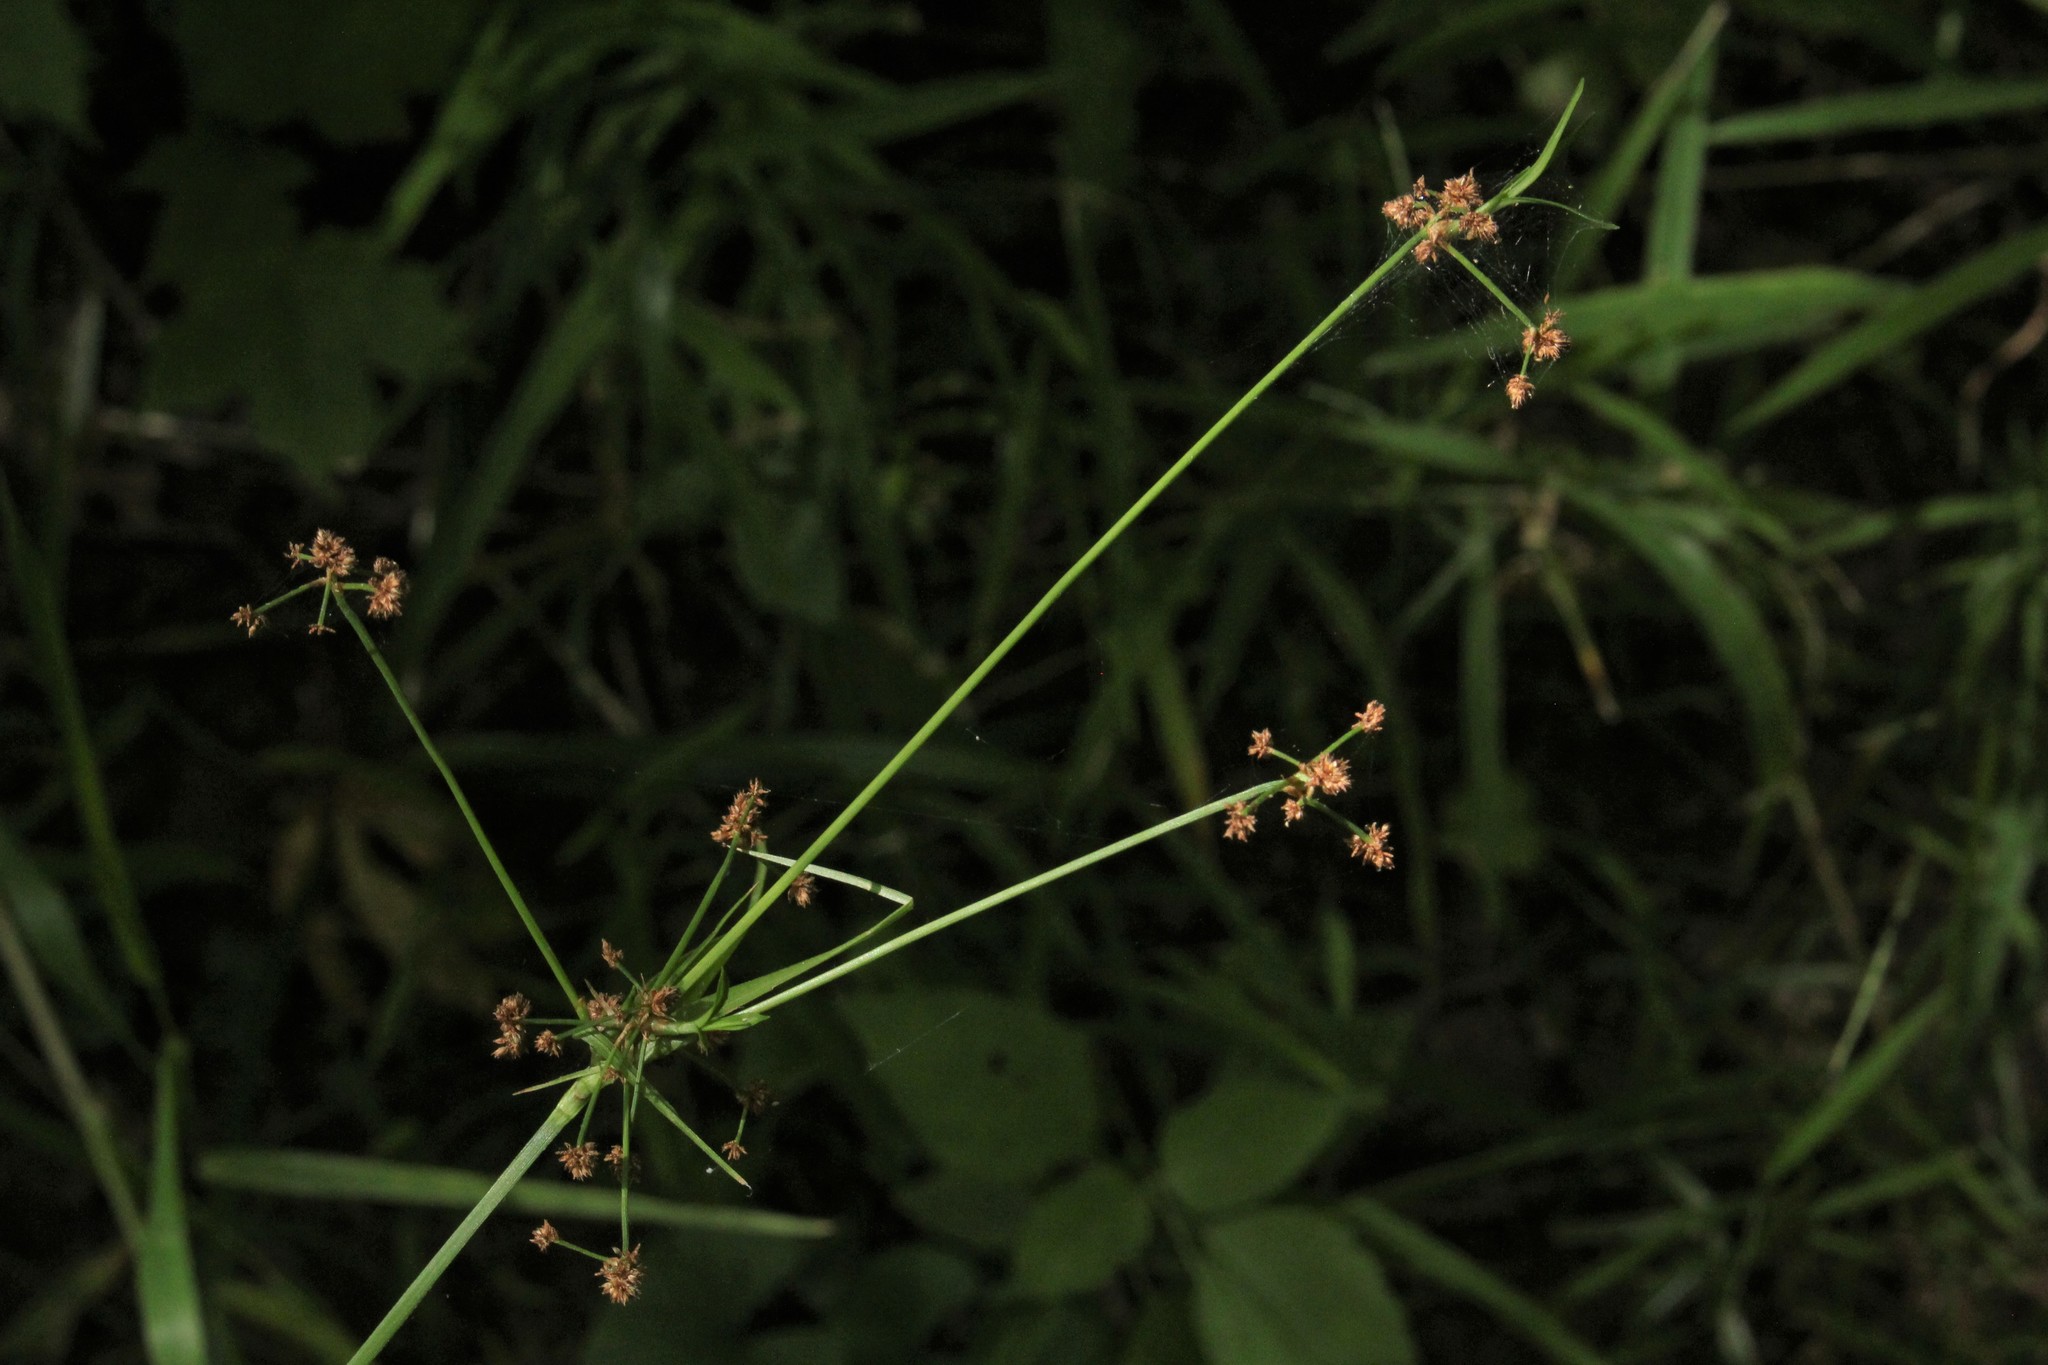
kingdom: Plantae
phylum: Tracheophyta
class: Liliopsida
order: Poales
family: Cyperaceae
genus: Scirpus
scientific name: Scirpus hattorianus
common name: Early dark-green bulrush
